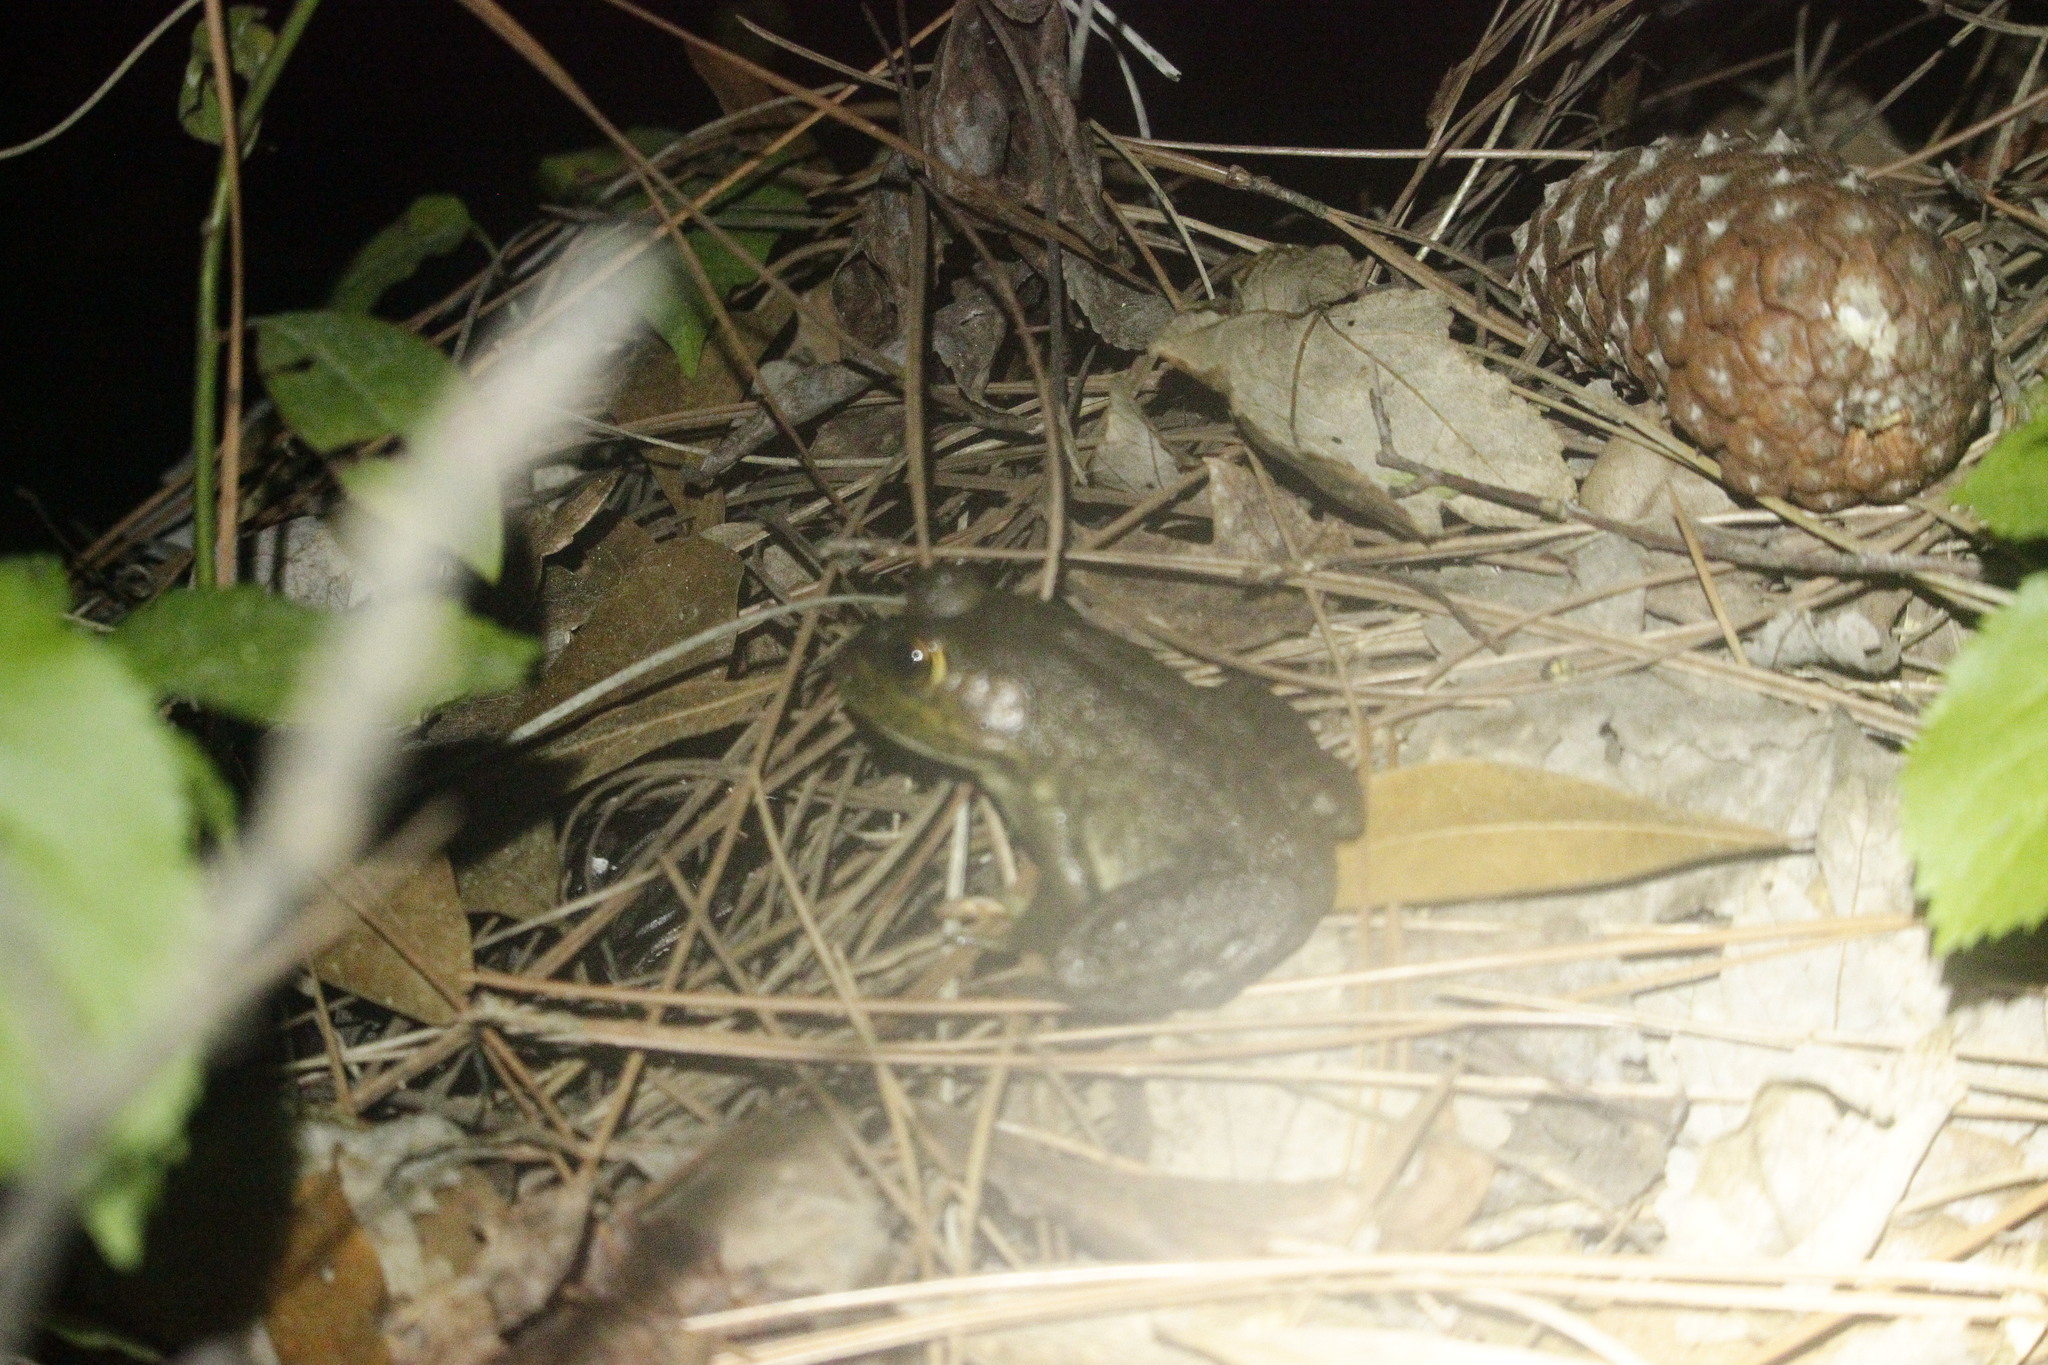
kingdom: Animalia
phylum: Chordata
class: Amphibia
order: Anura
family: Ranidae
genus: Lithobates
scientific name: Lithobates catesbeianus
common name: American bullfrog
